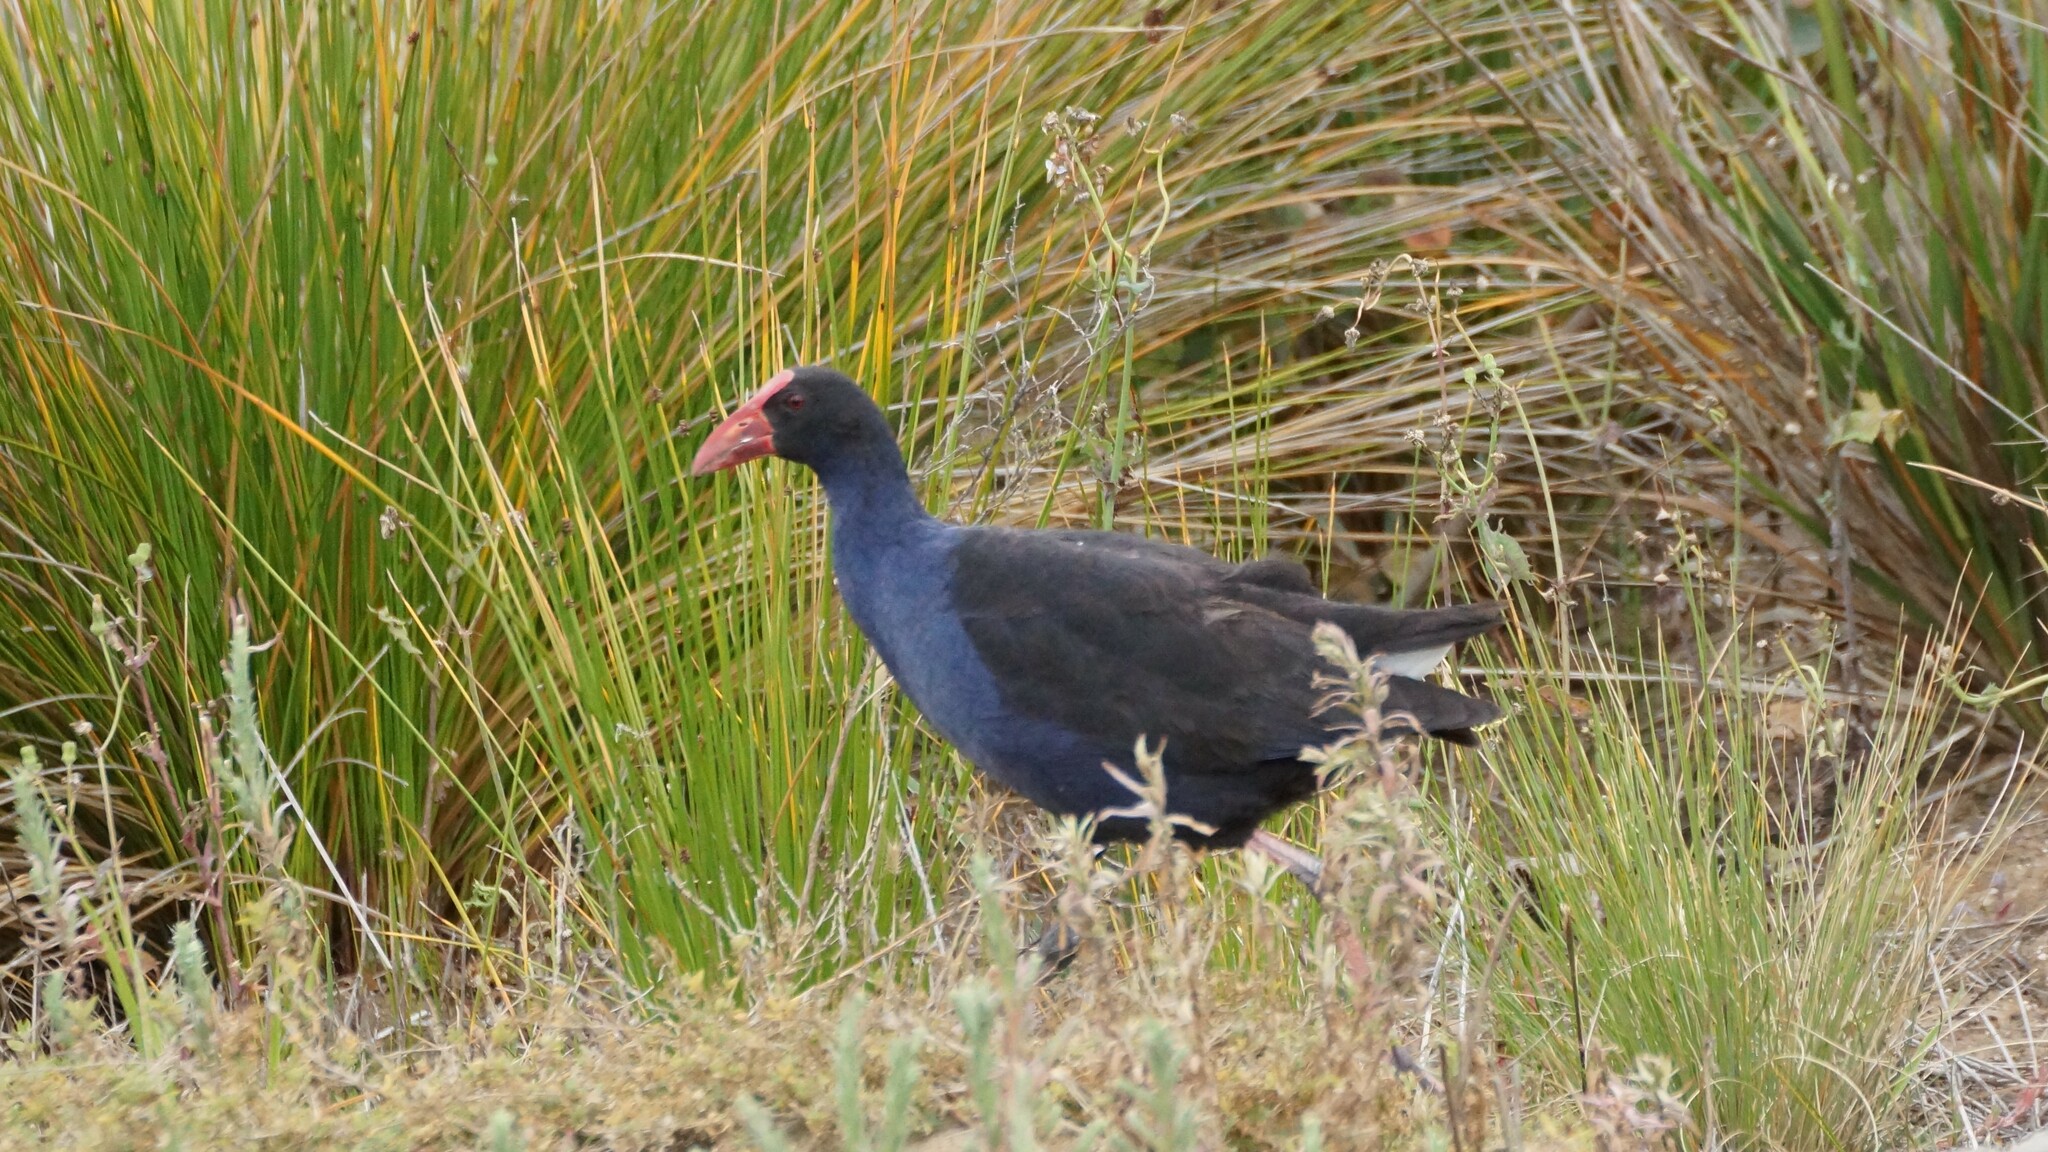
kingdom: Animalia
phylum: Chordata
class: Aves
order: Gruiformes
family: Rallidae
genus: Porphyrio
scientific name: Porphyrio melanotus
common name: Australasian swamphen
